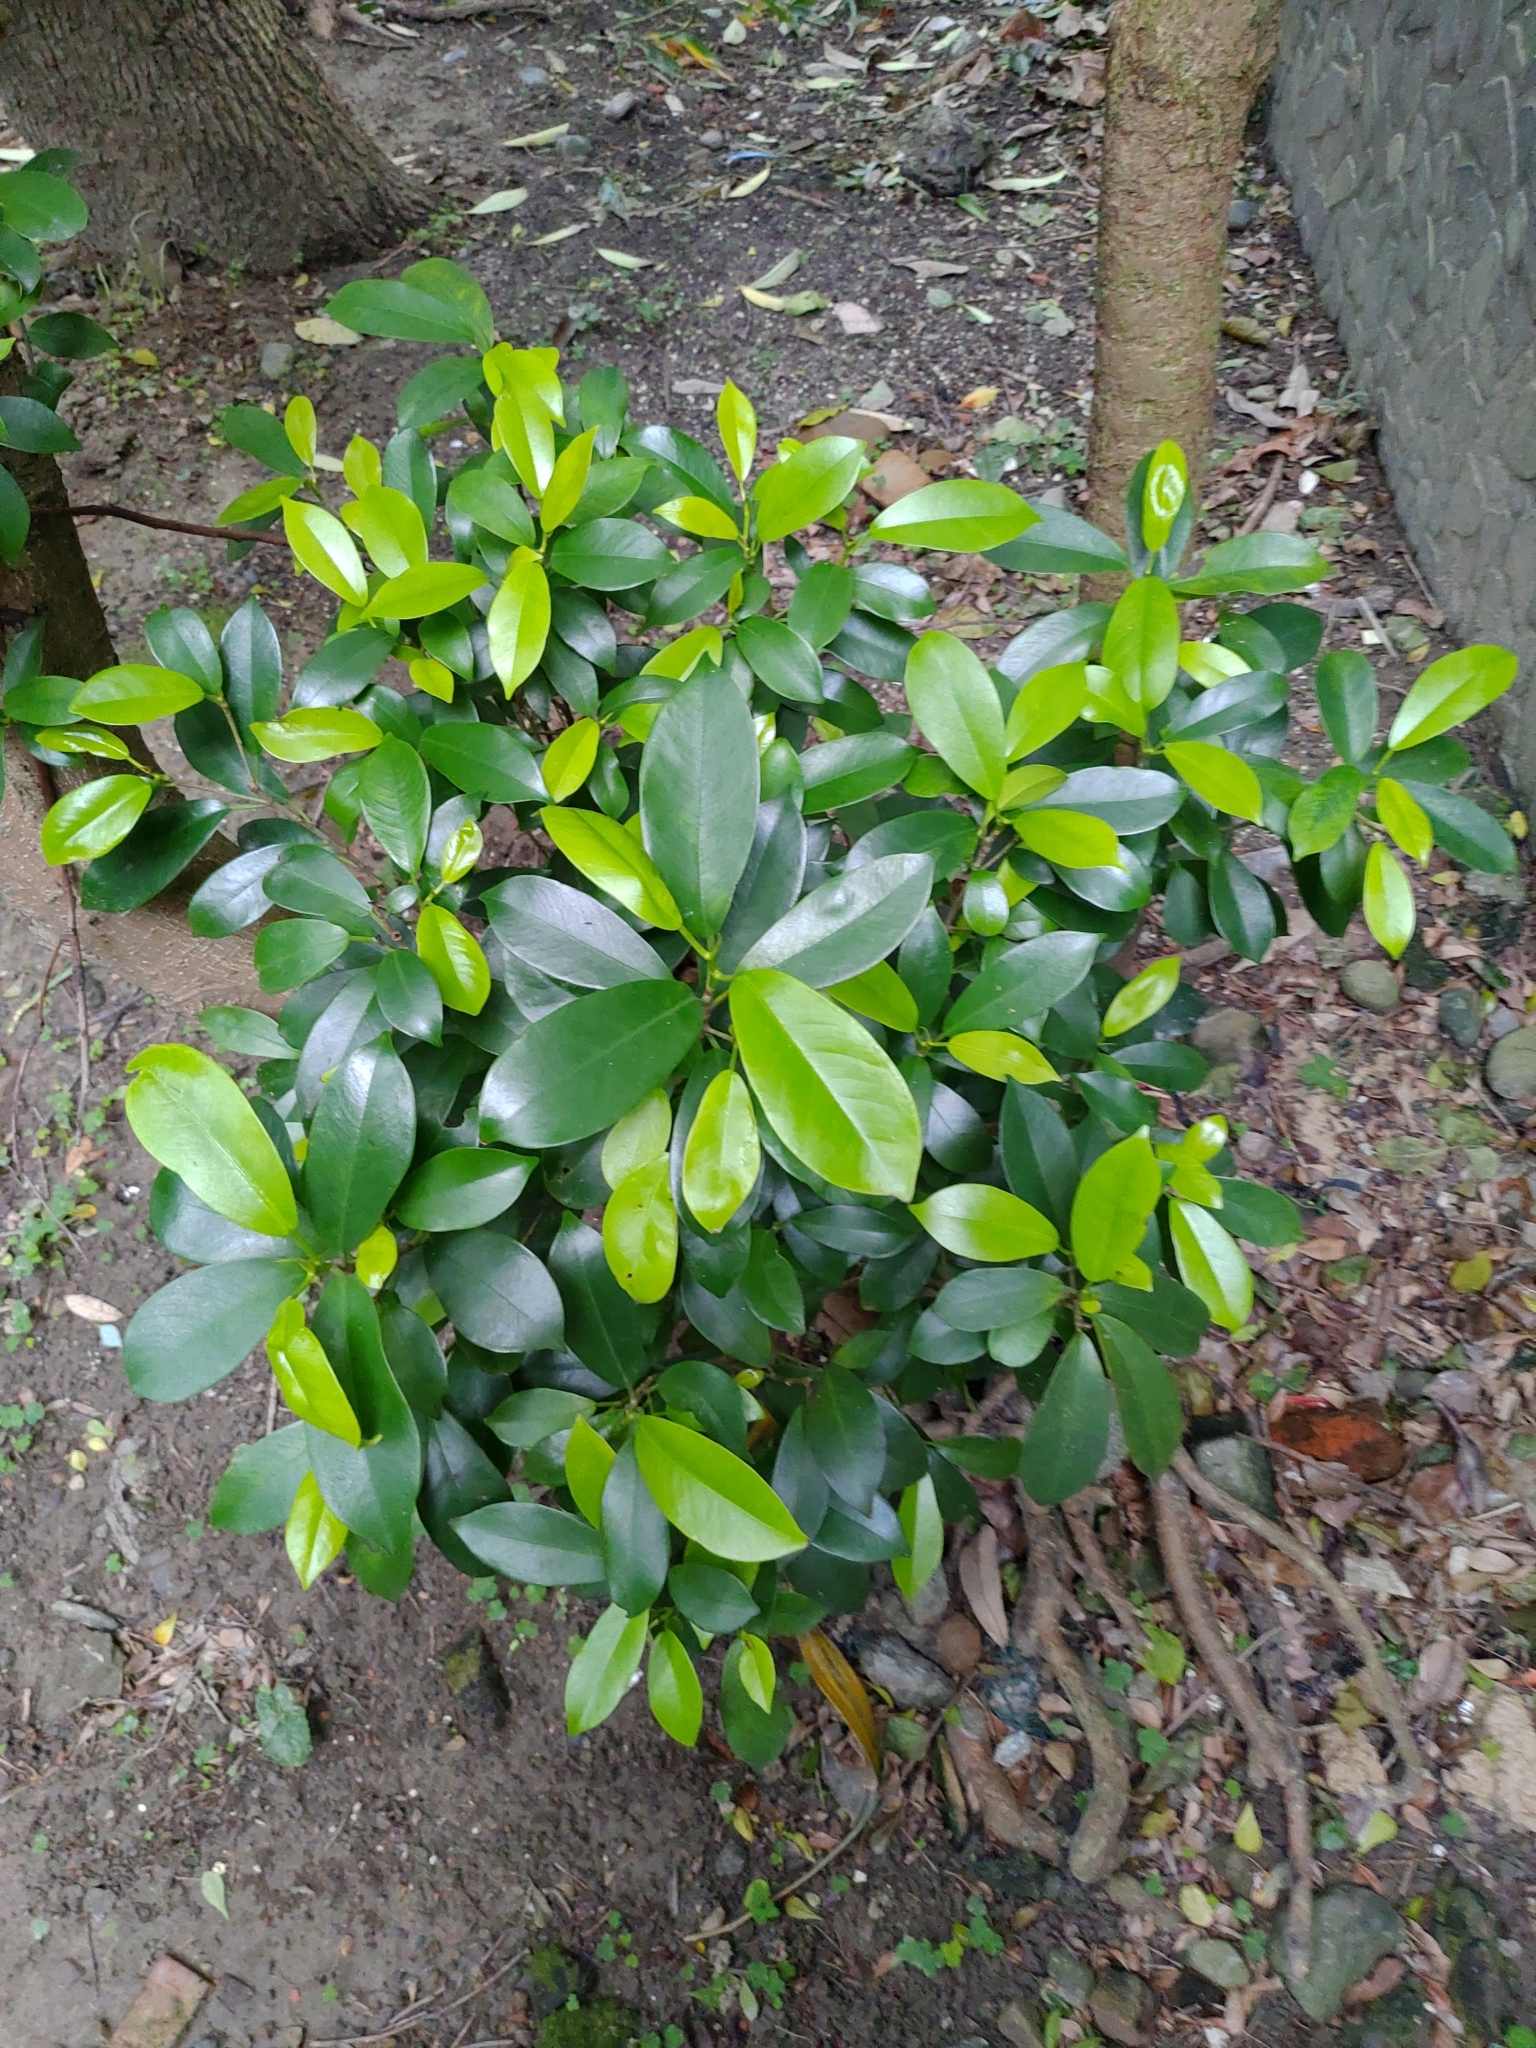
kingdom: Plantae
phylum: Tracheophyta
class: Magnoliopsida
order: Rosales
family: Moraceae
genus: Ficus
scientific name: Ficus microcarpa
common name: Chinese banyan
